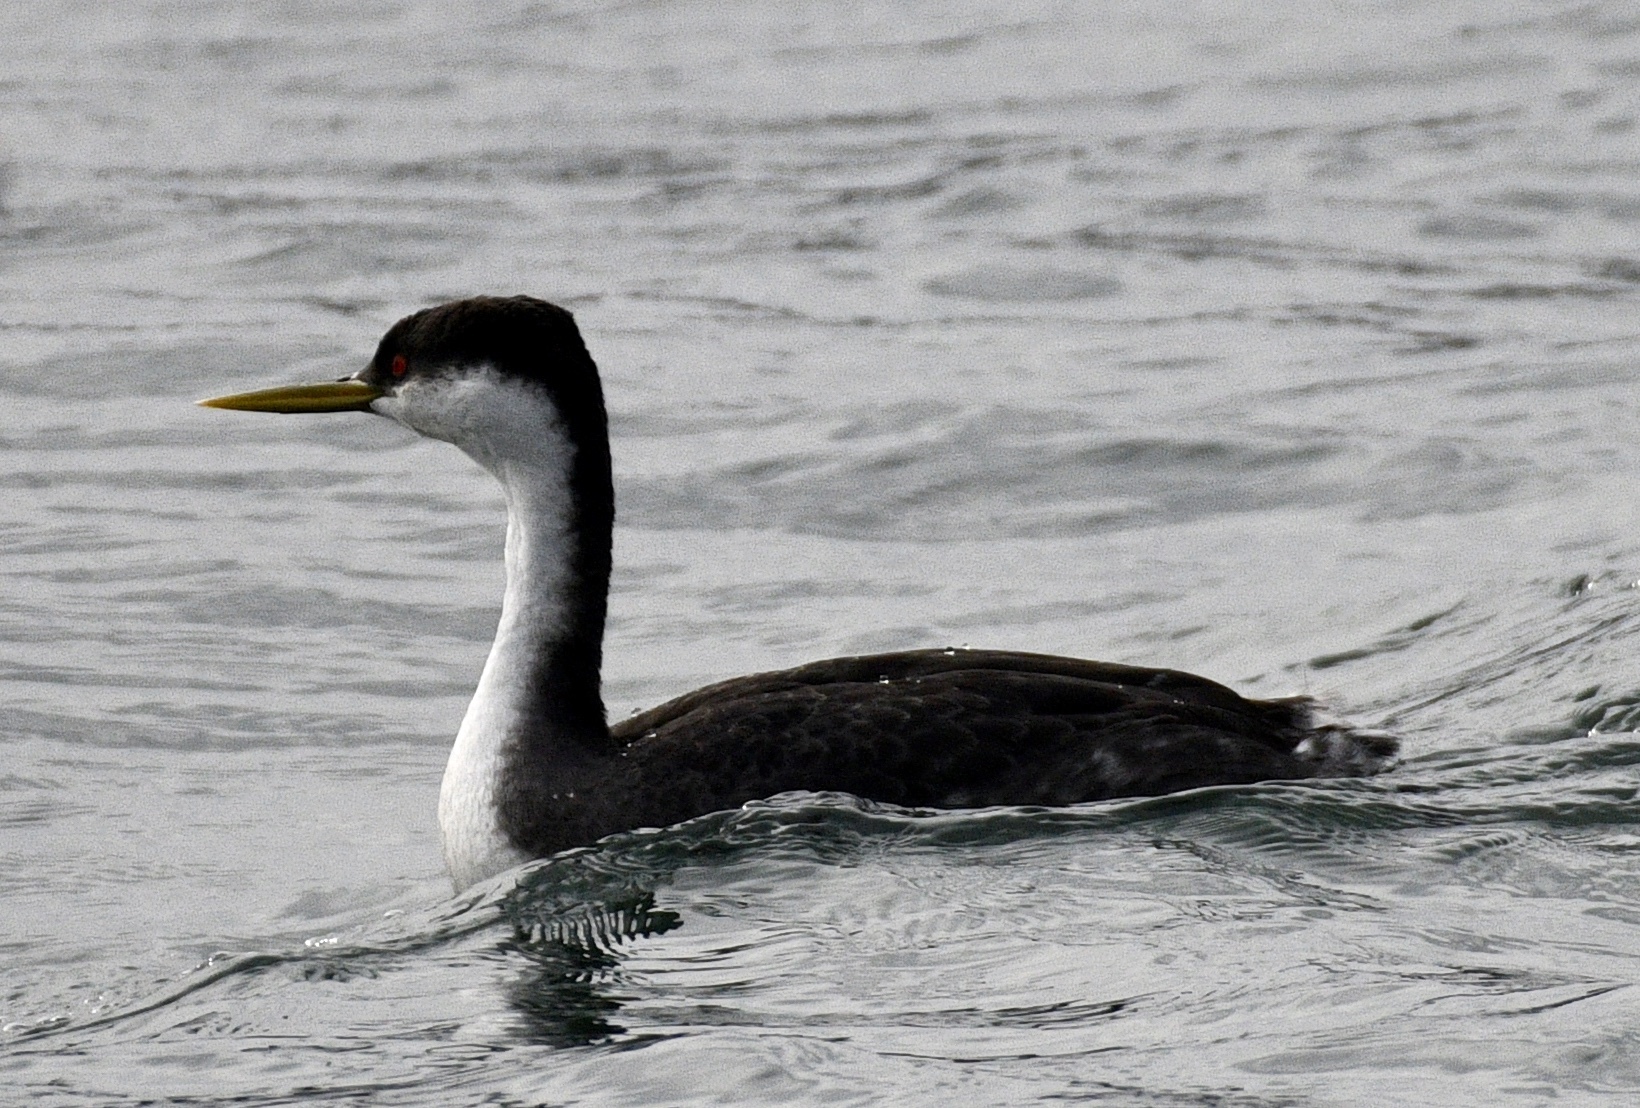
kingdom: Animalia
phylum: Chordata
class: Aves
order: Podicipediformes
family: Podicipedidae
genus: Aechmophorus
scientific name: Aechmophorus occidentalis
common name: Western grebe
